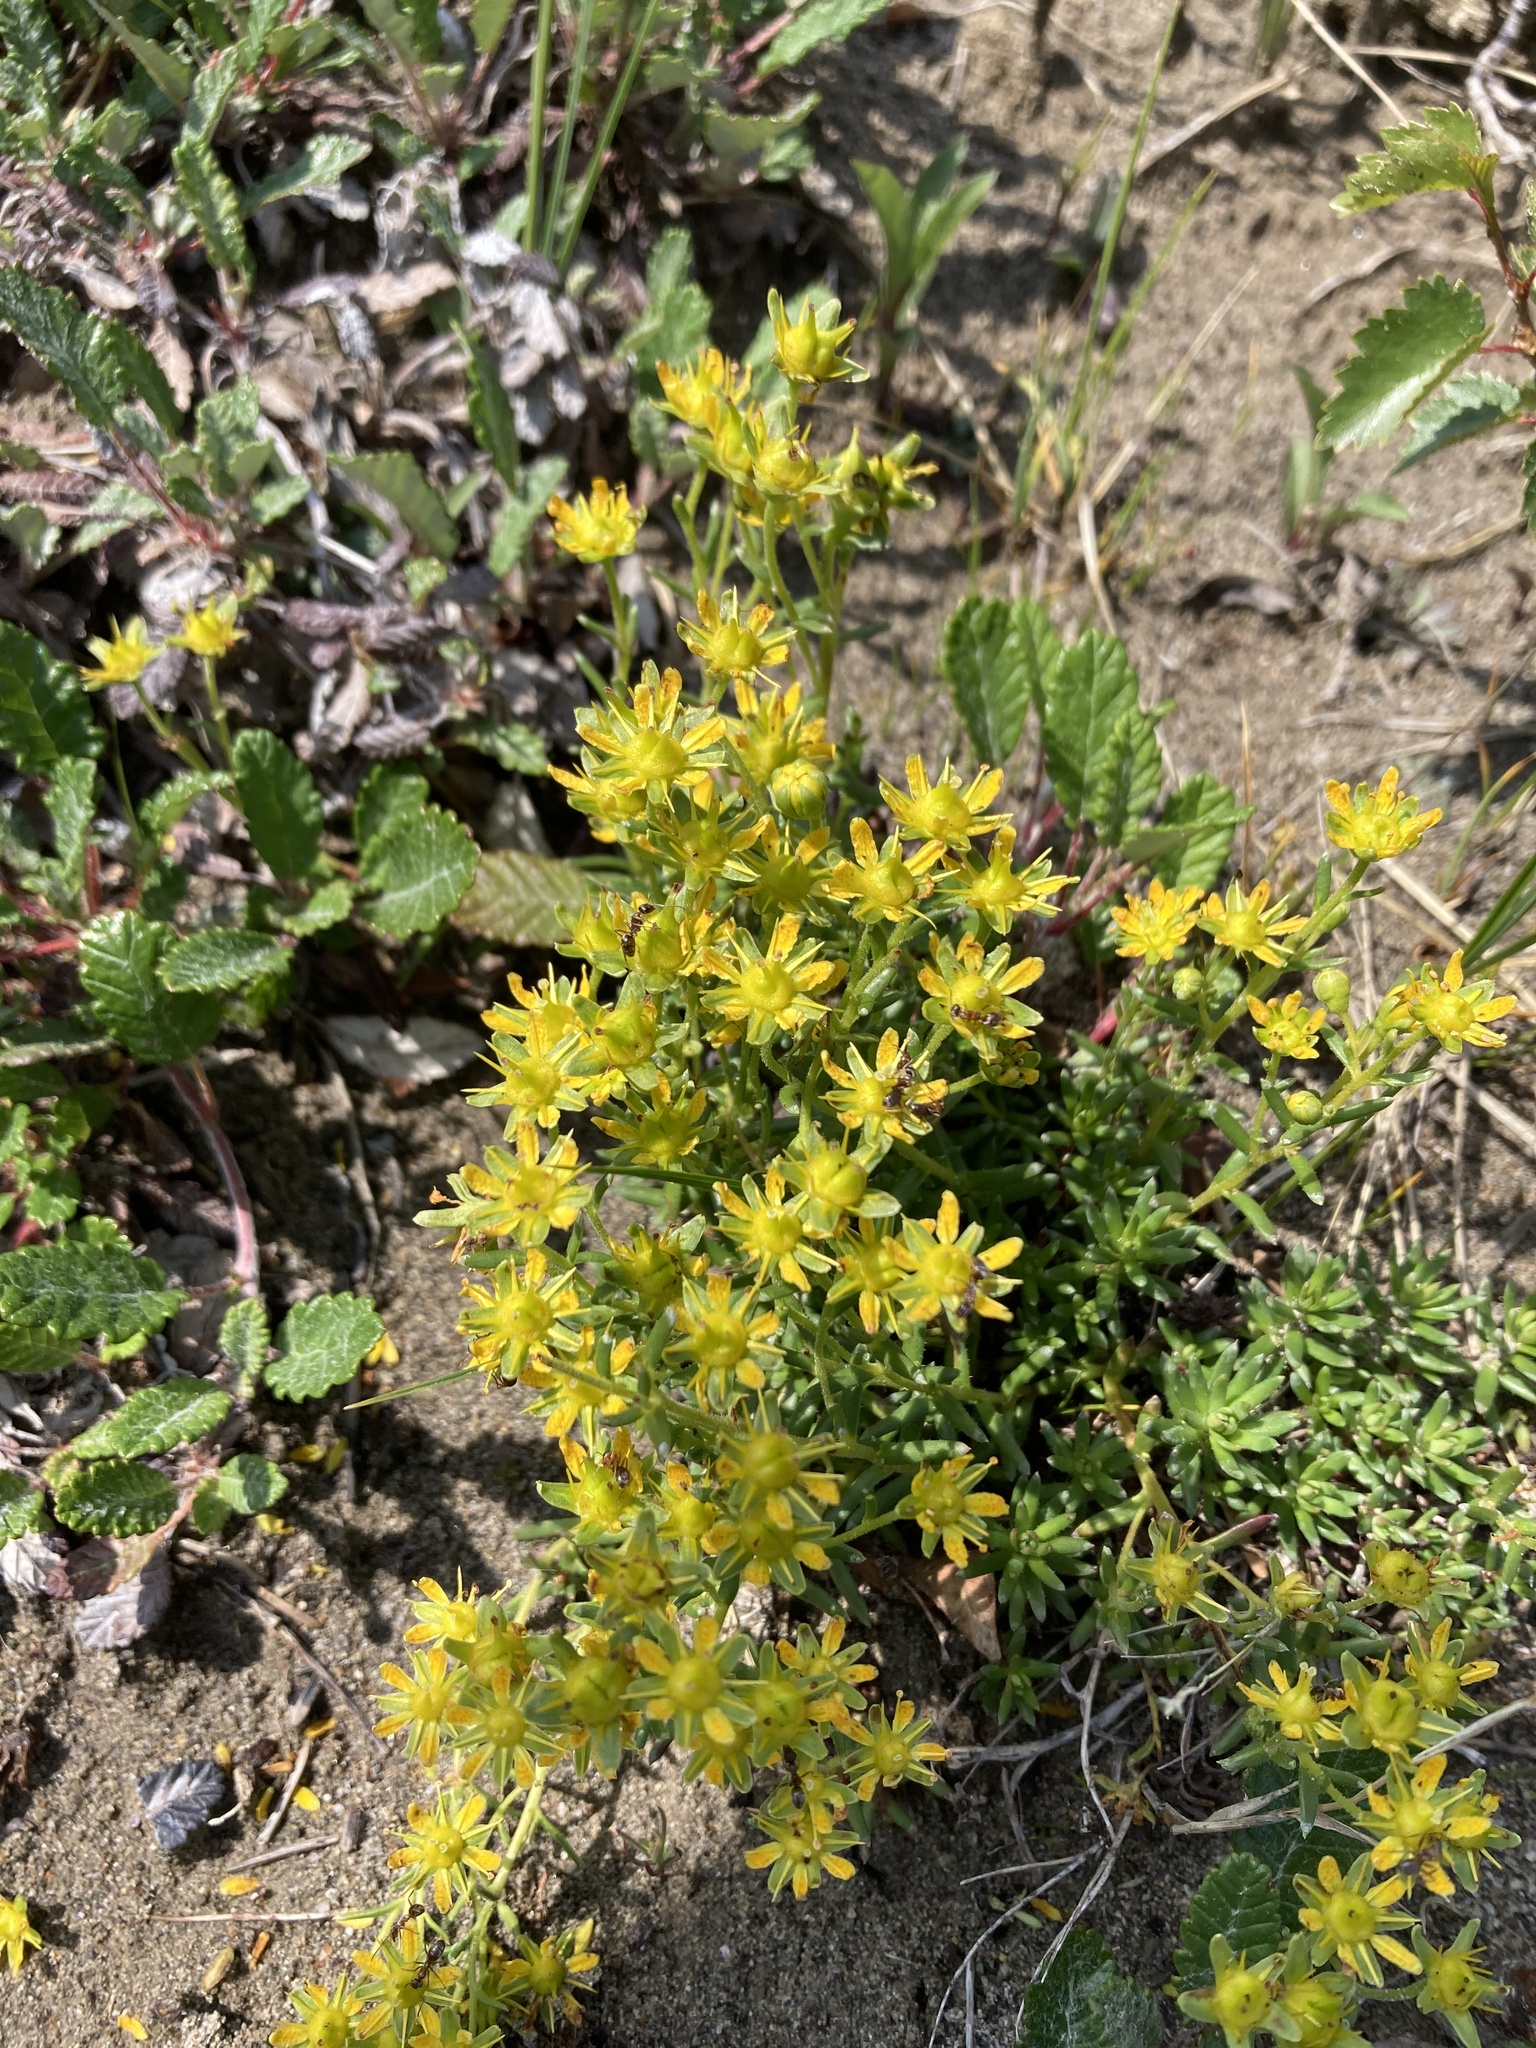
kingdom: Plantae
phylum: Tracheophyta
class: Magnoliopsida
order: Saxifragales
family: Saxifragaceae
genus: Saxifraga
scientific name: Saxifraga aizoides
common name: Yellow mountain saxifrage
